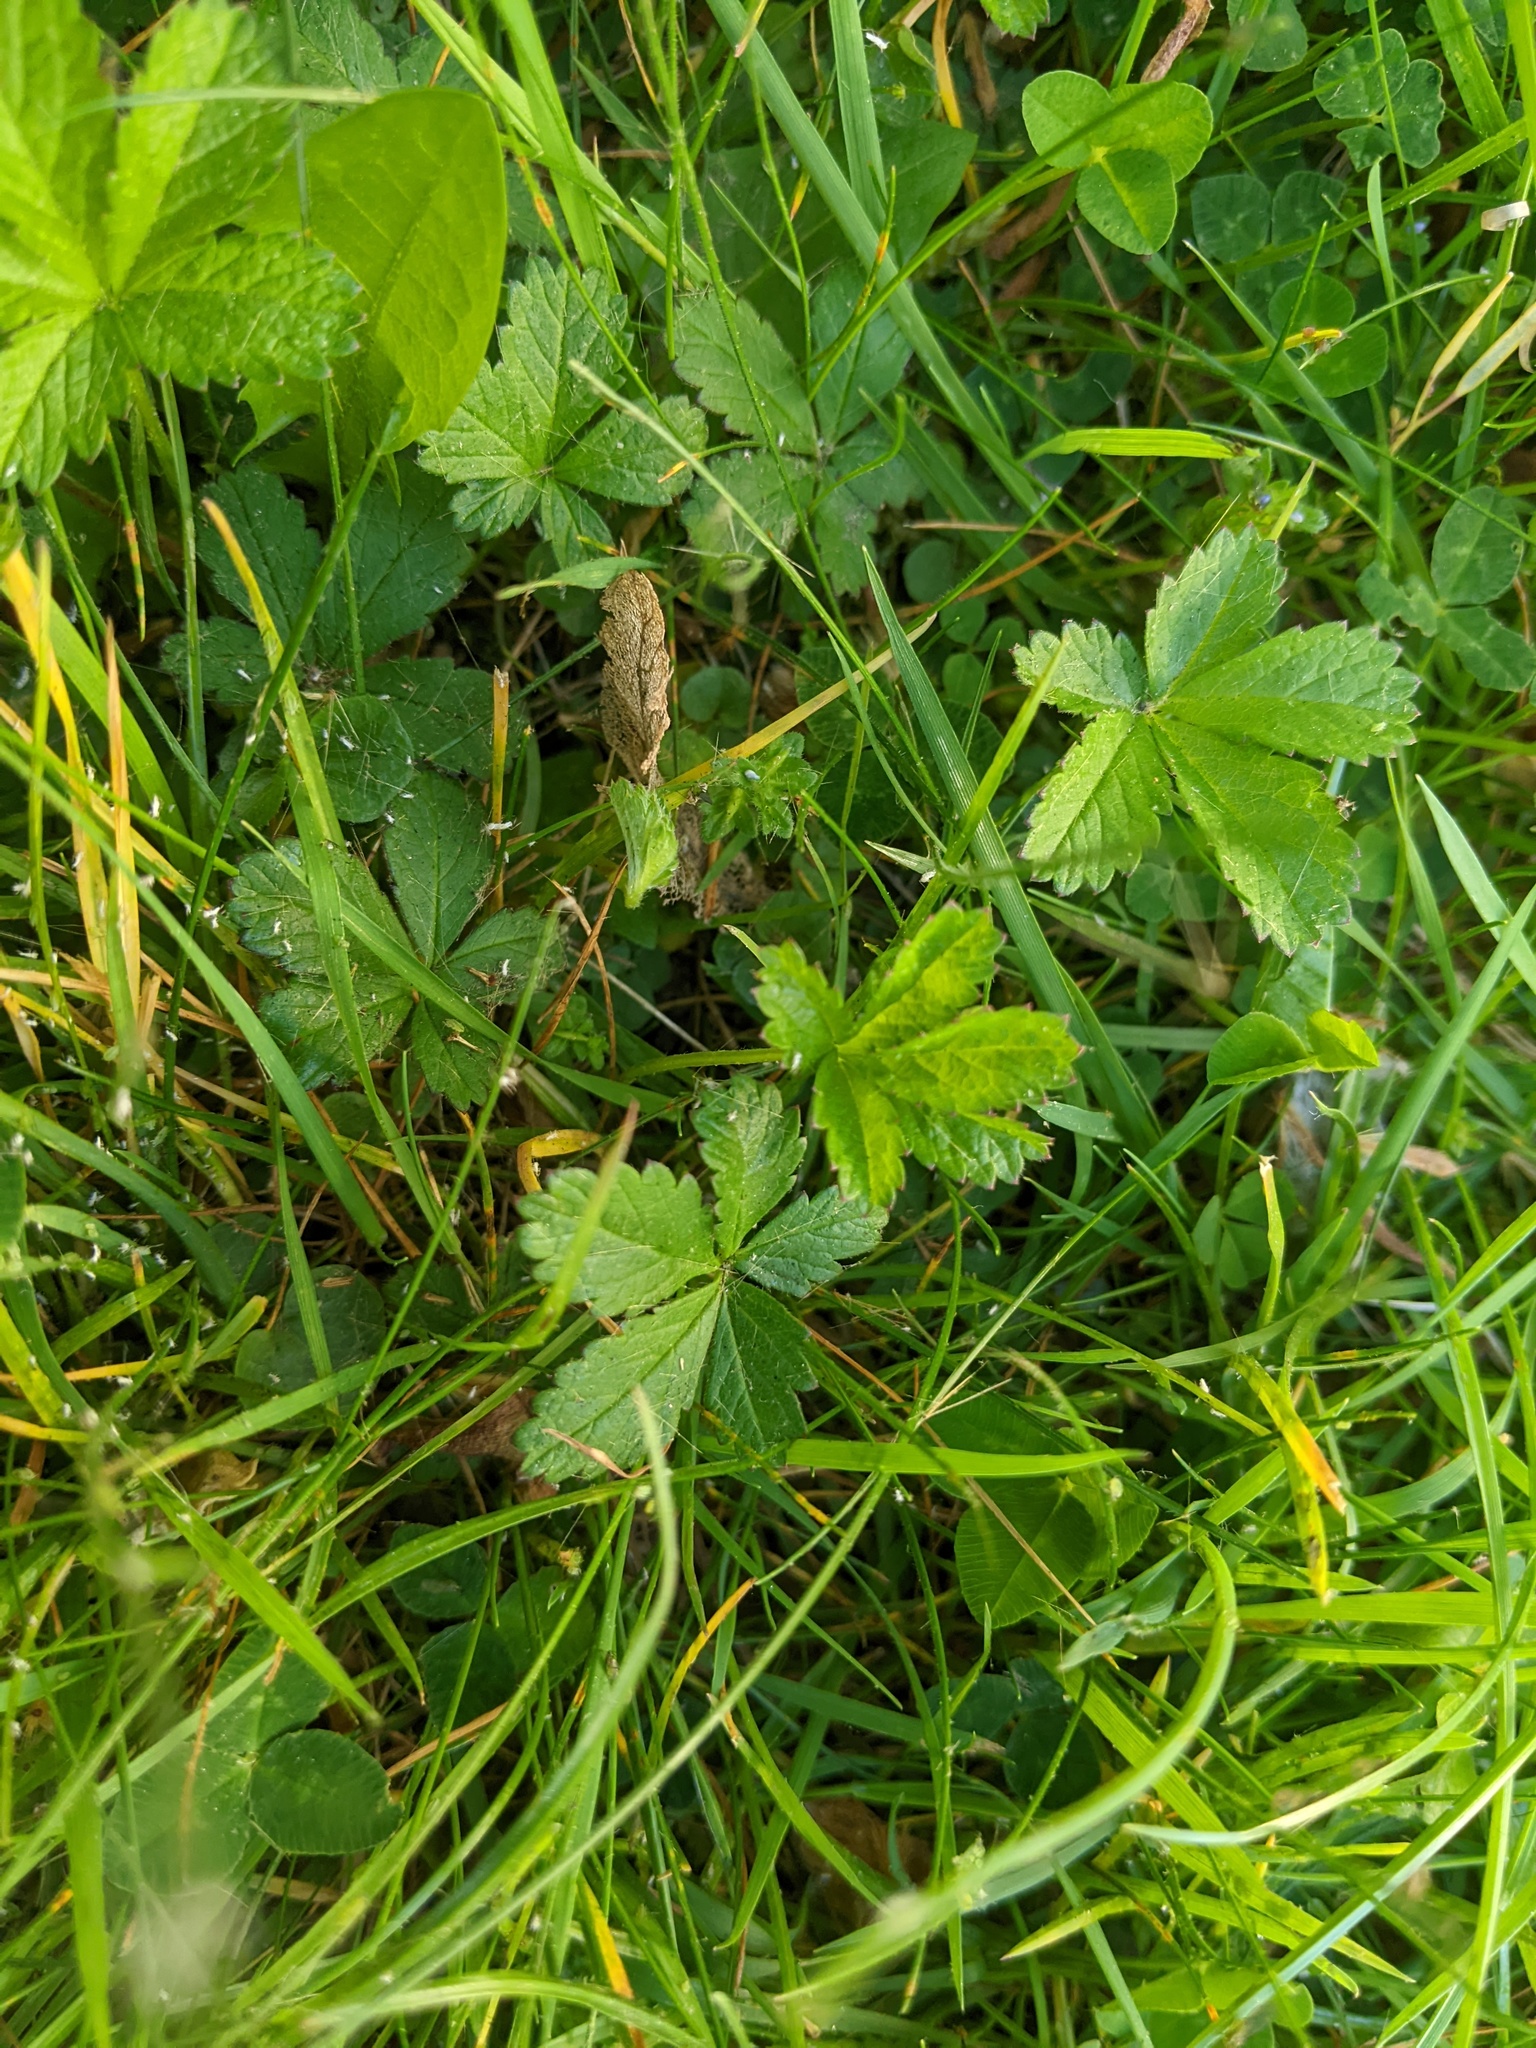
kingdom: Plantae
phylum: Tracheophyta
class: Magnoliopsida
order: Rosales
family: Rosaceae
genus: Potentilla
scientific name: Potentilla reptans
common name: Creeping cinquefoil
